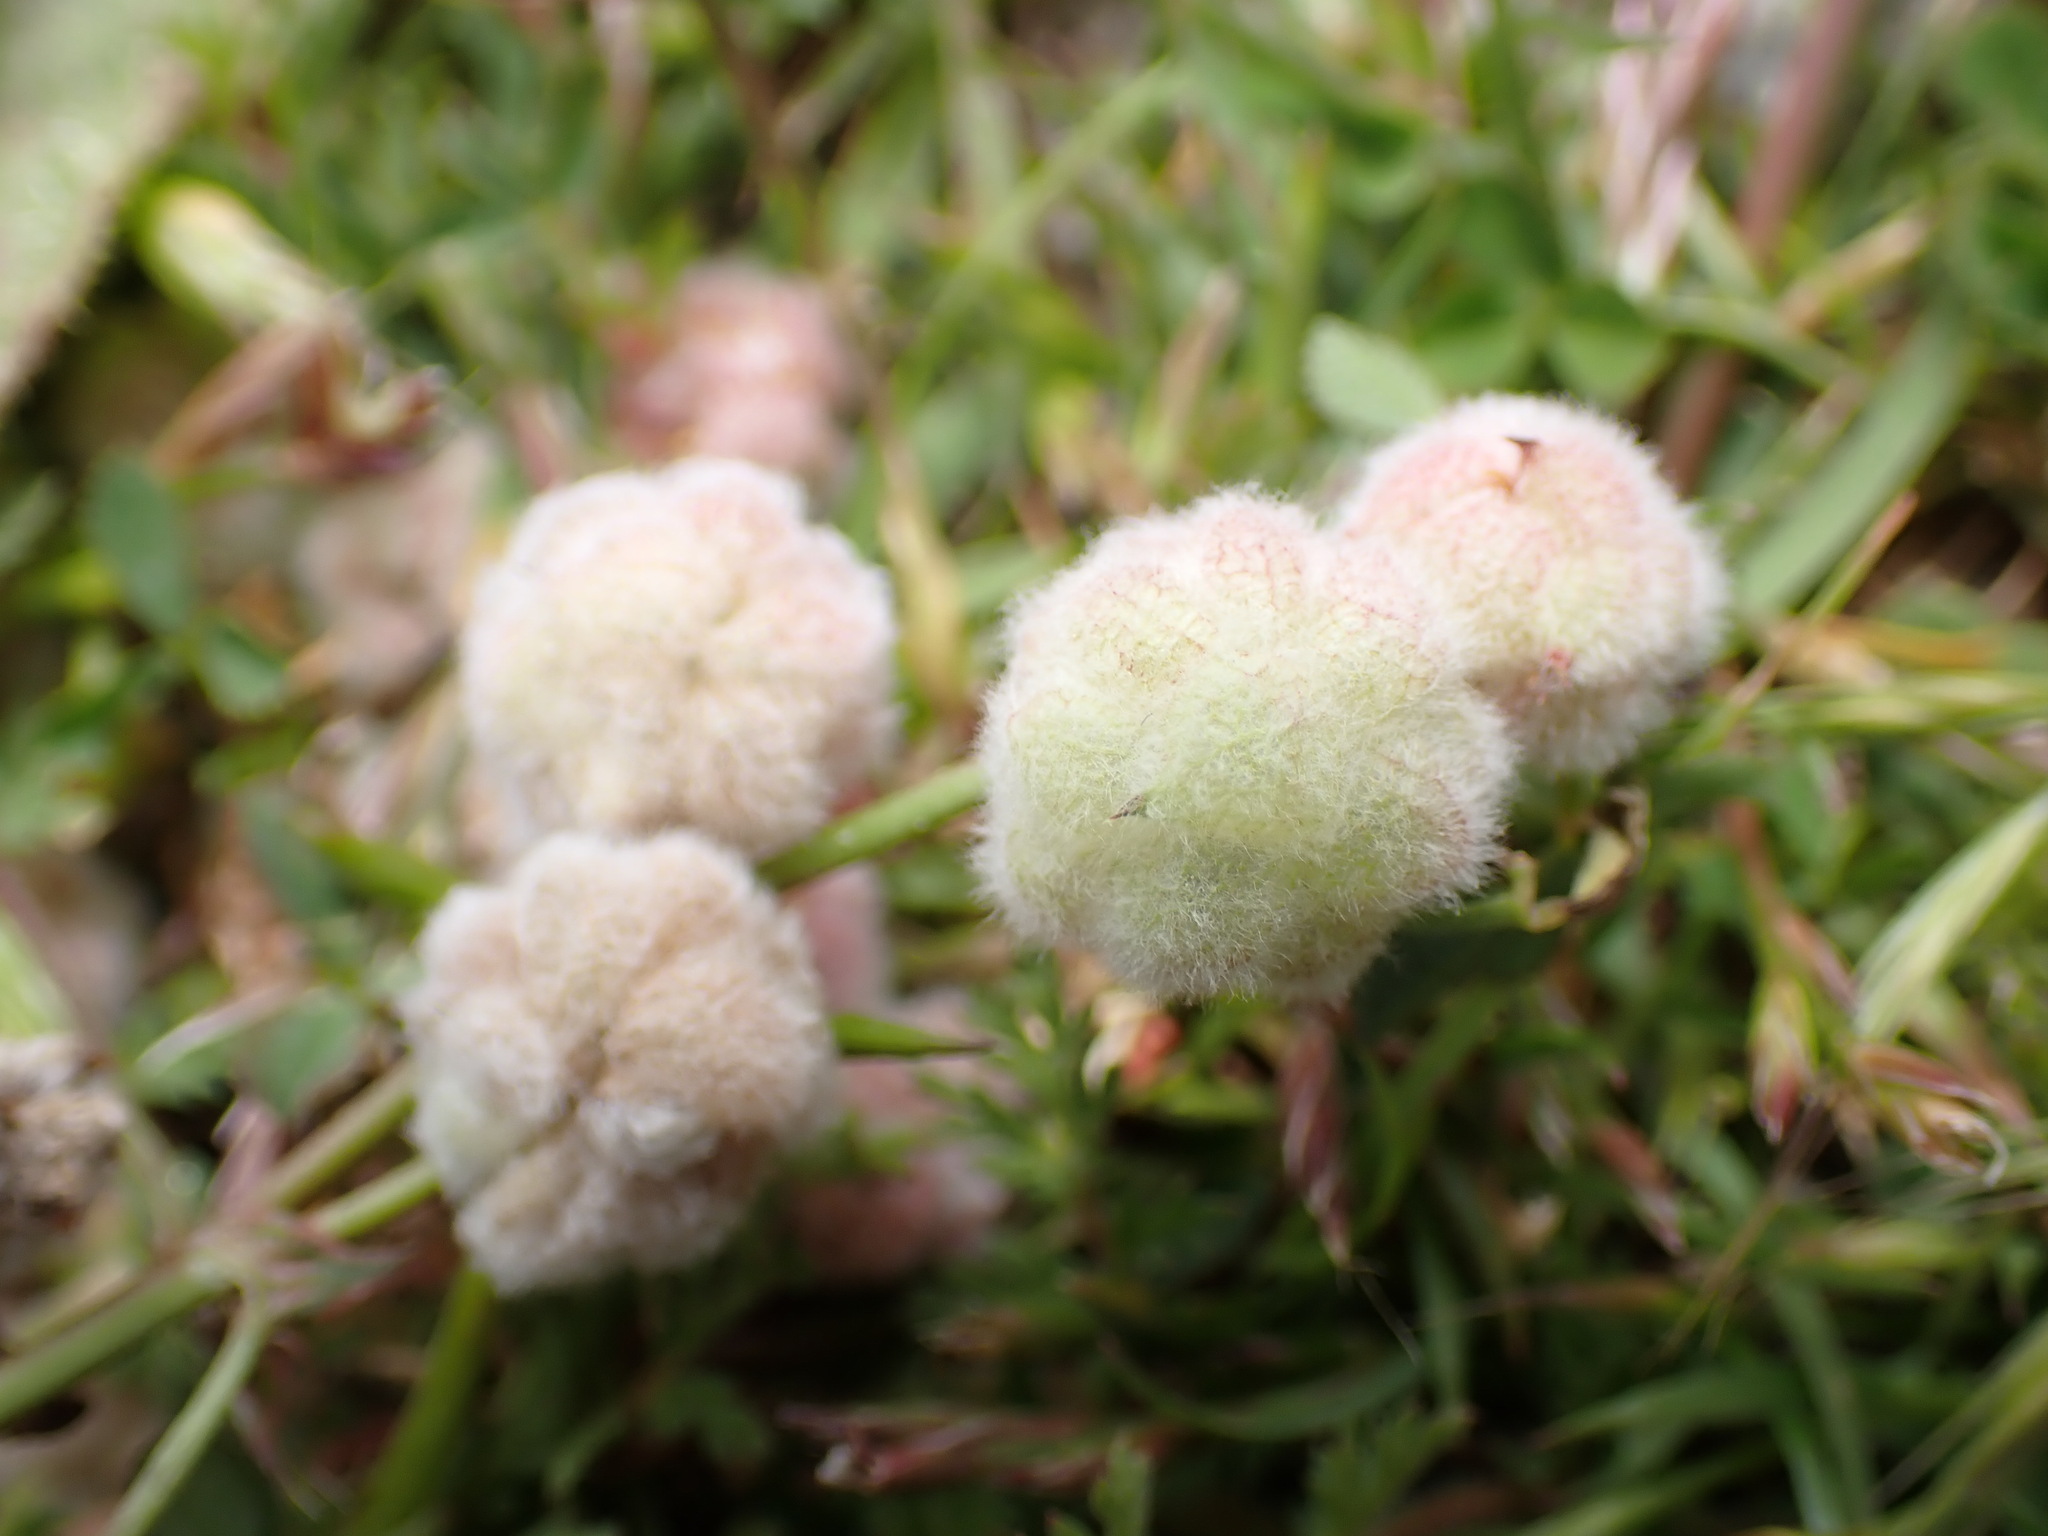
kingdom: Plantae
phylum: Tracheophyta
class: Magnoliopsida
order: Fabales
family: Fabaceae
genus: Trifolium
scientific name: Trifolium tomentosum
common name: Woolly clover
